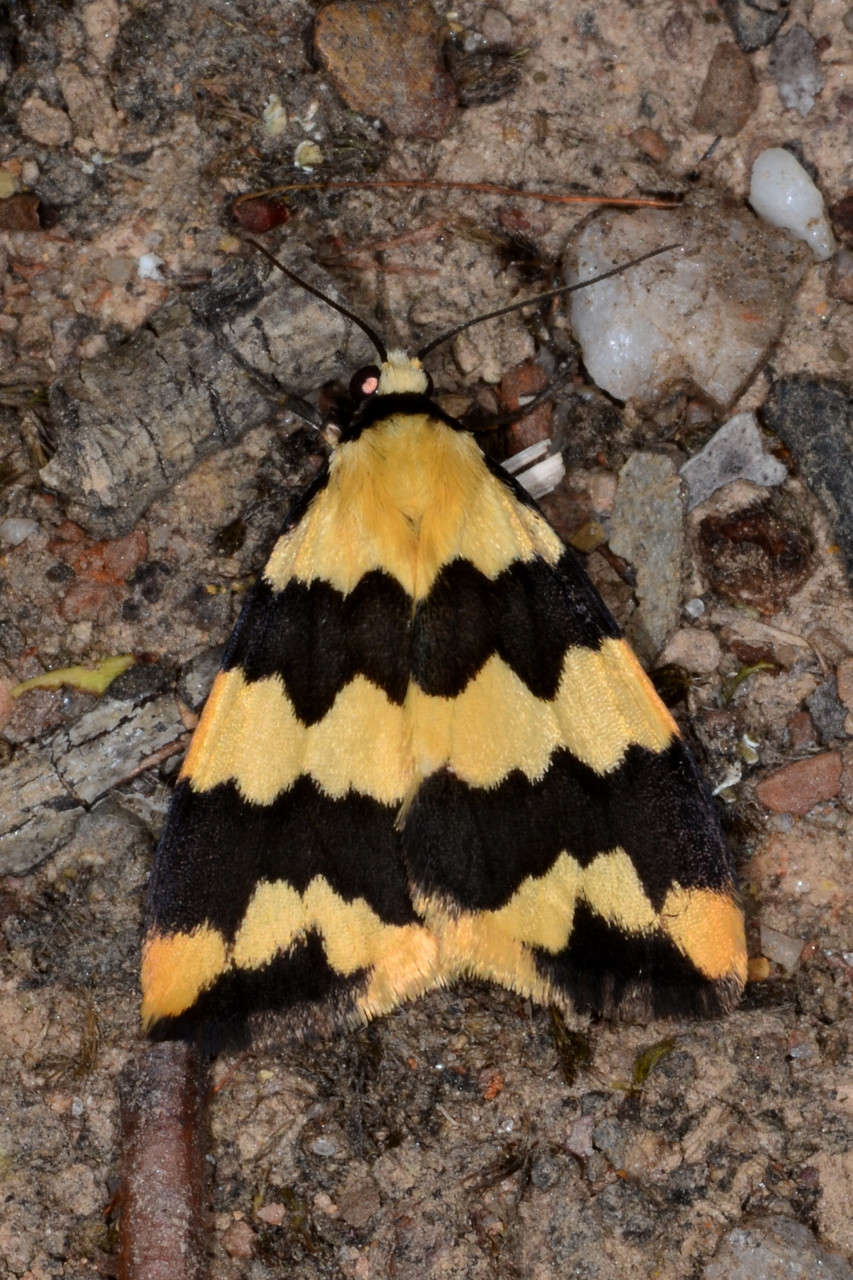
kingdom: Animalia
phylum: Arthropoda
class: Insecta
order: Lepidoptera
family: Erebidae
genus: Termessa
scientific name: Termessa laeta
